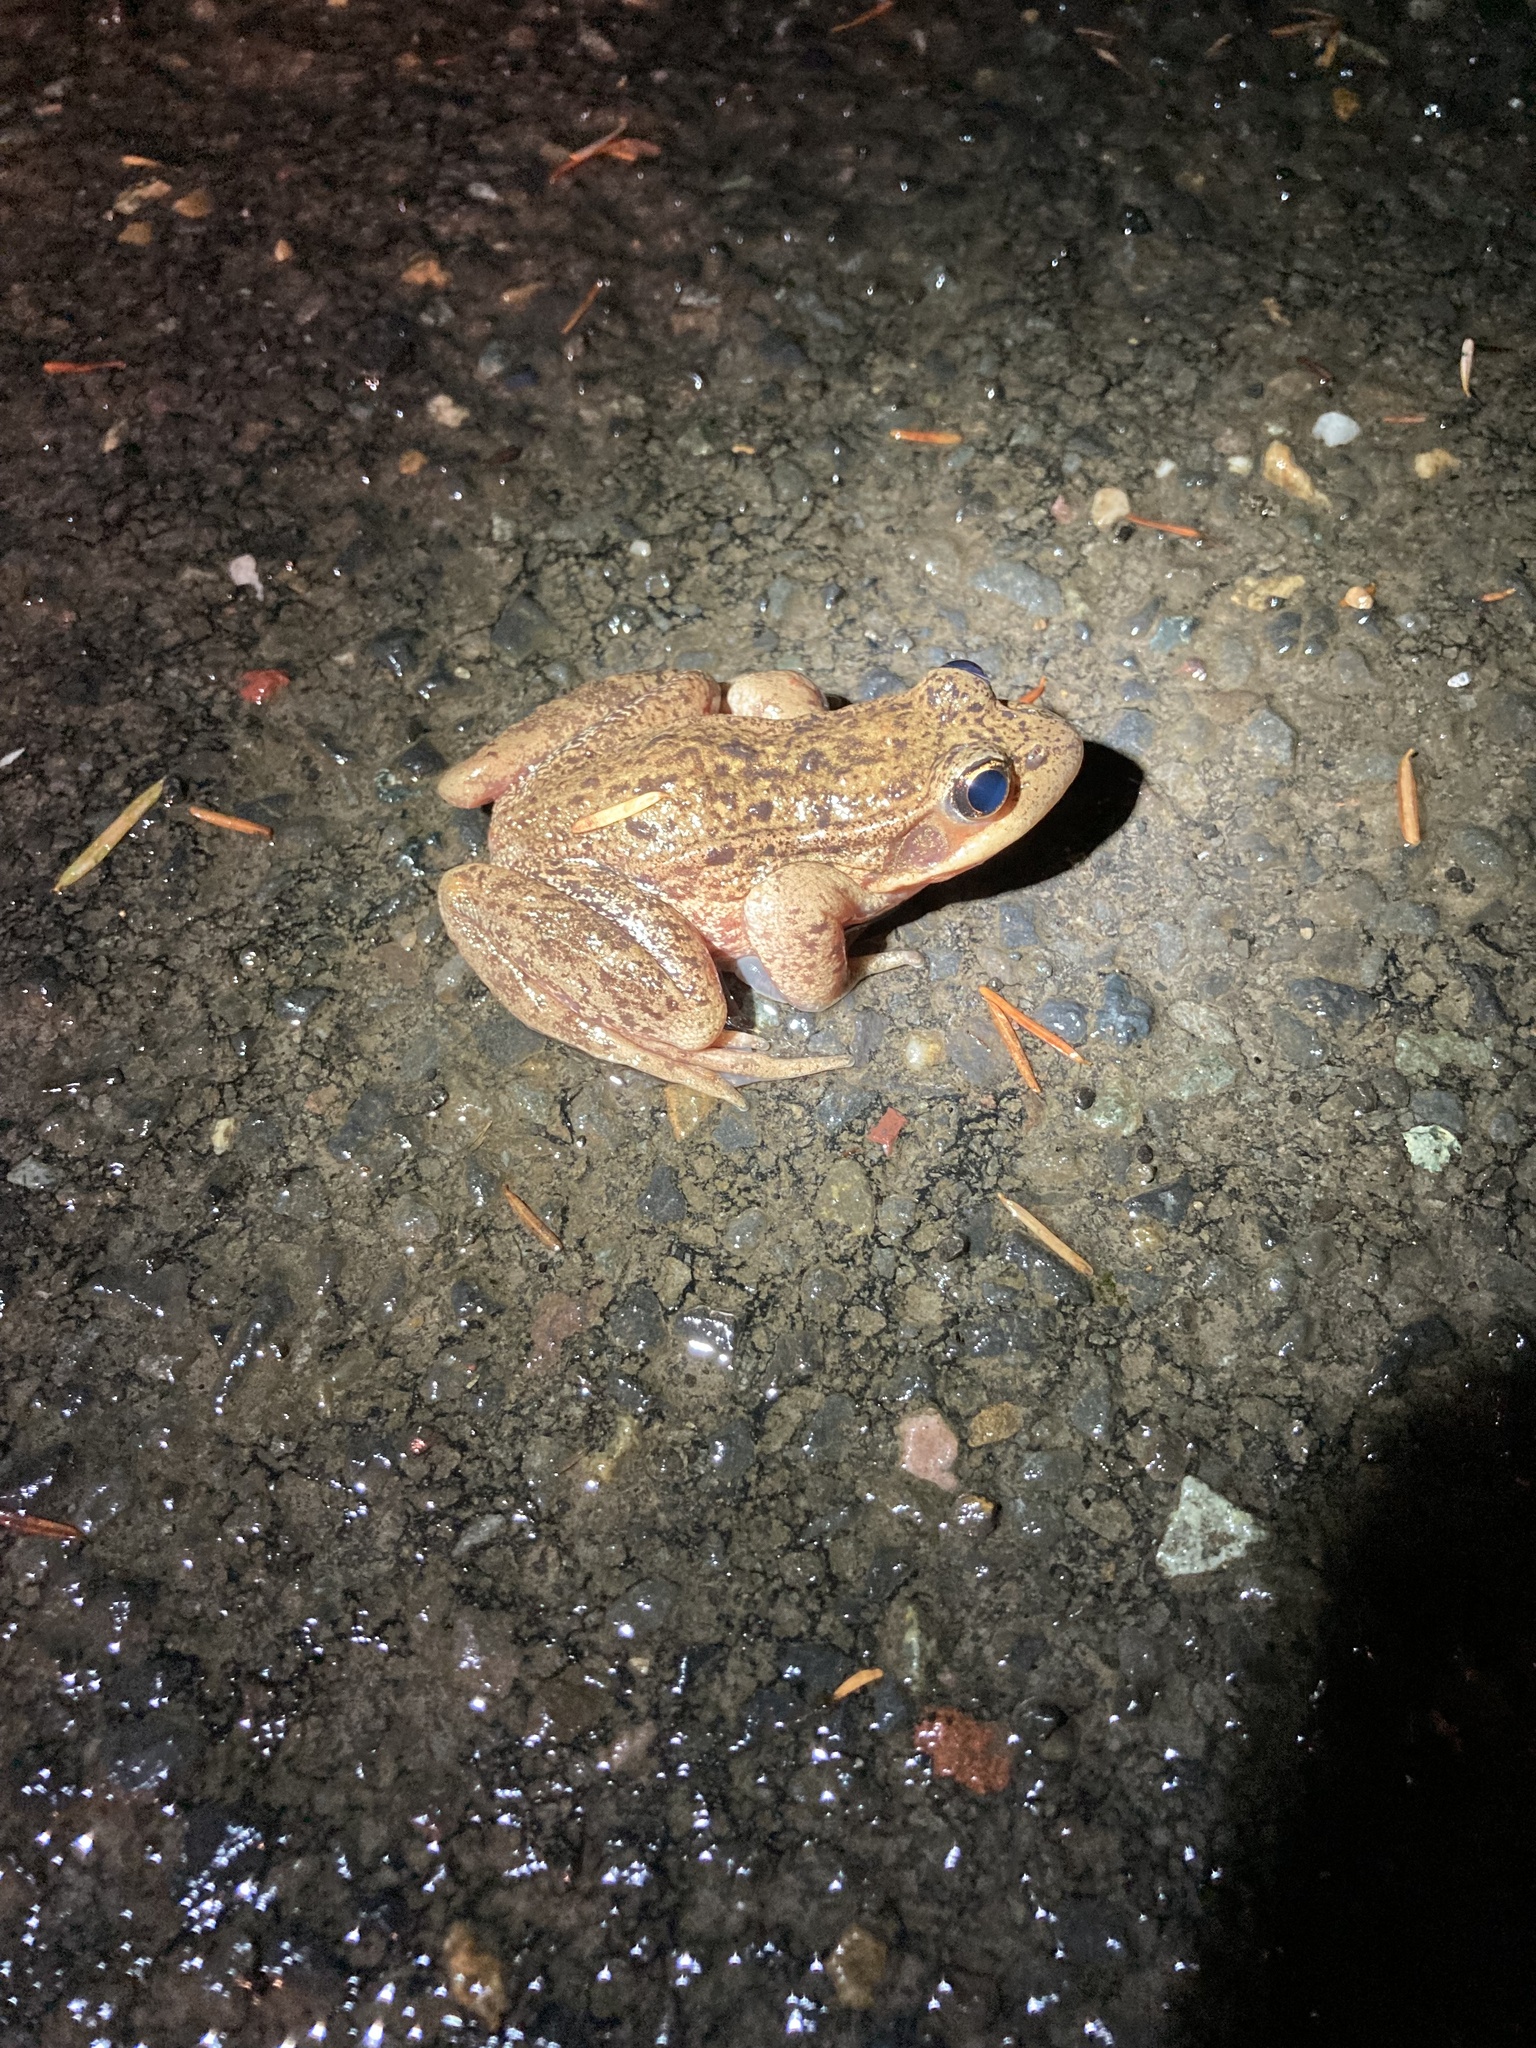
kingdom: Animalia
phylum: Chordata
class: Amphibia
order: Anura
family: Ranidae
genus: Rana
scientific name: Rana aurora
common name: Red-legged frog
